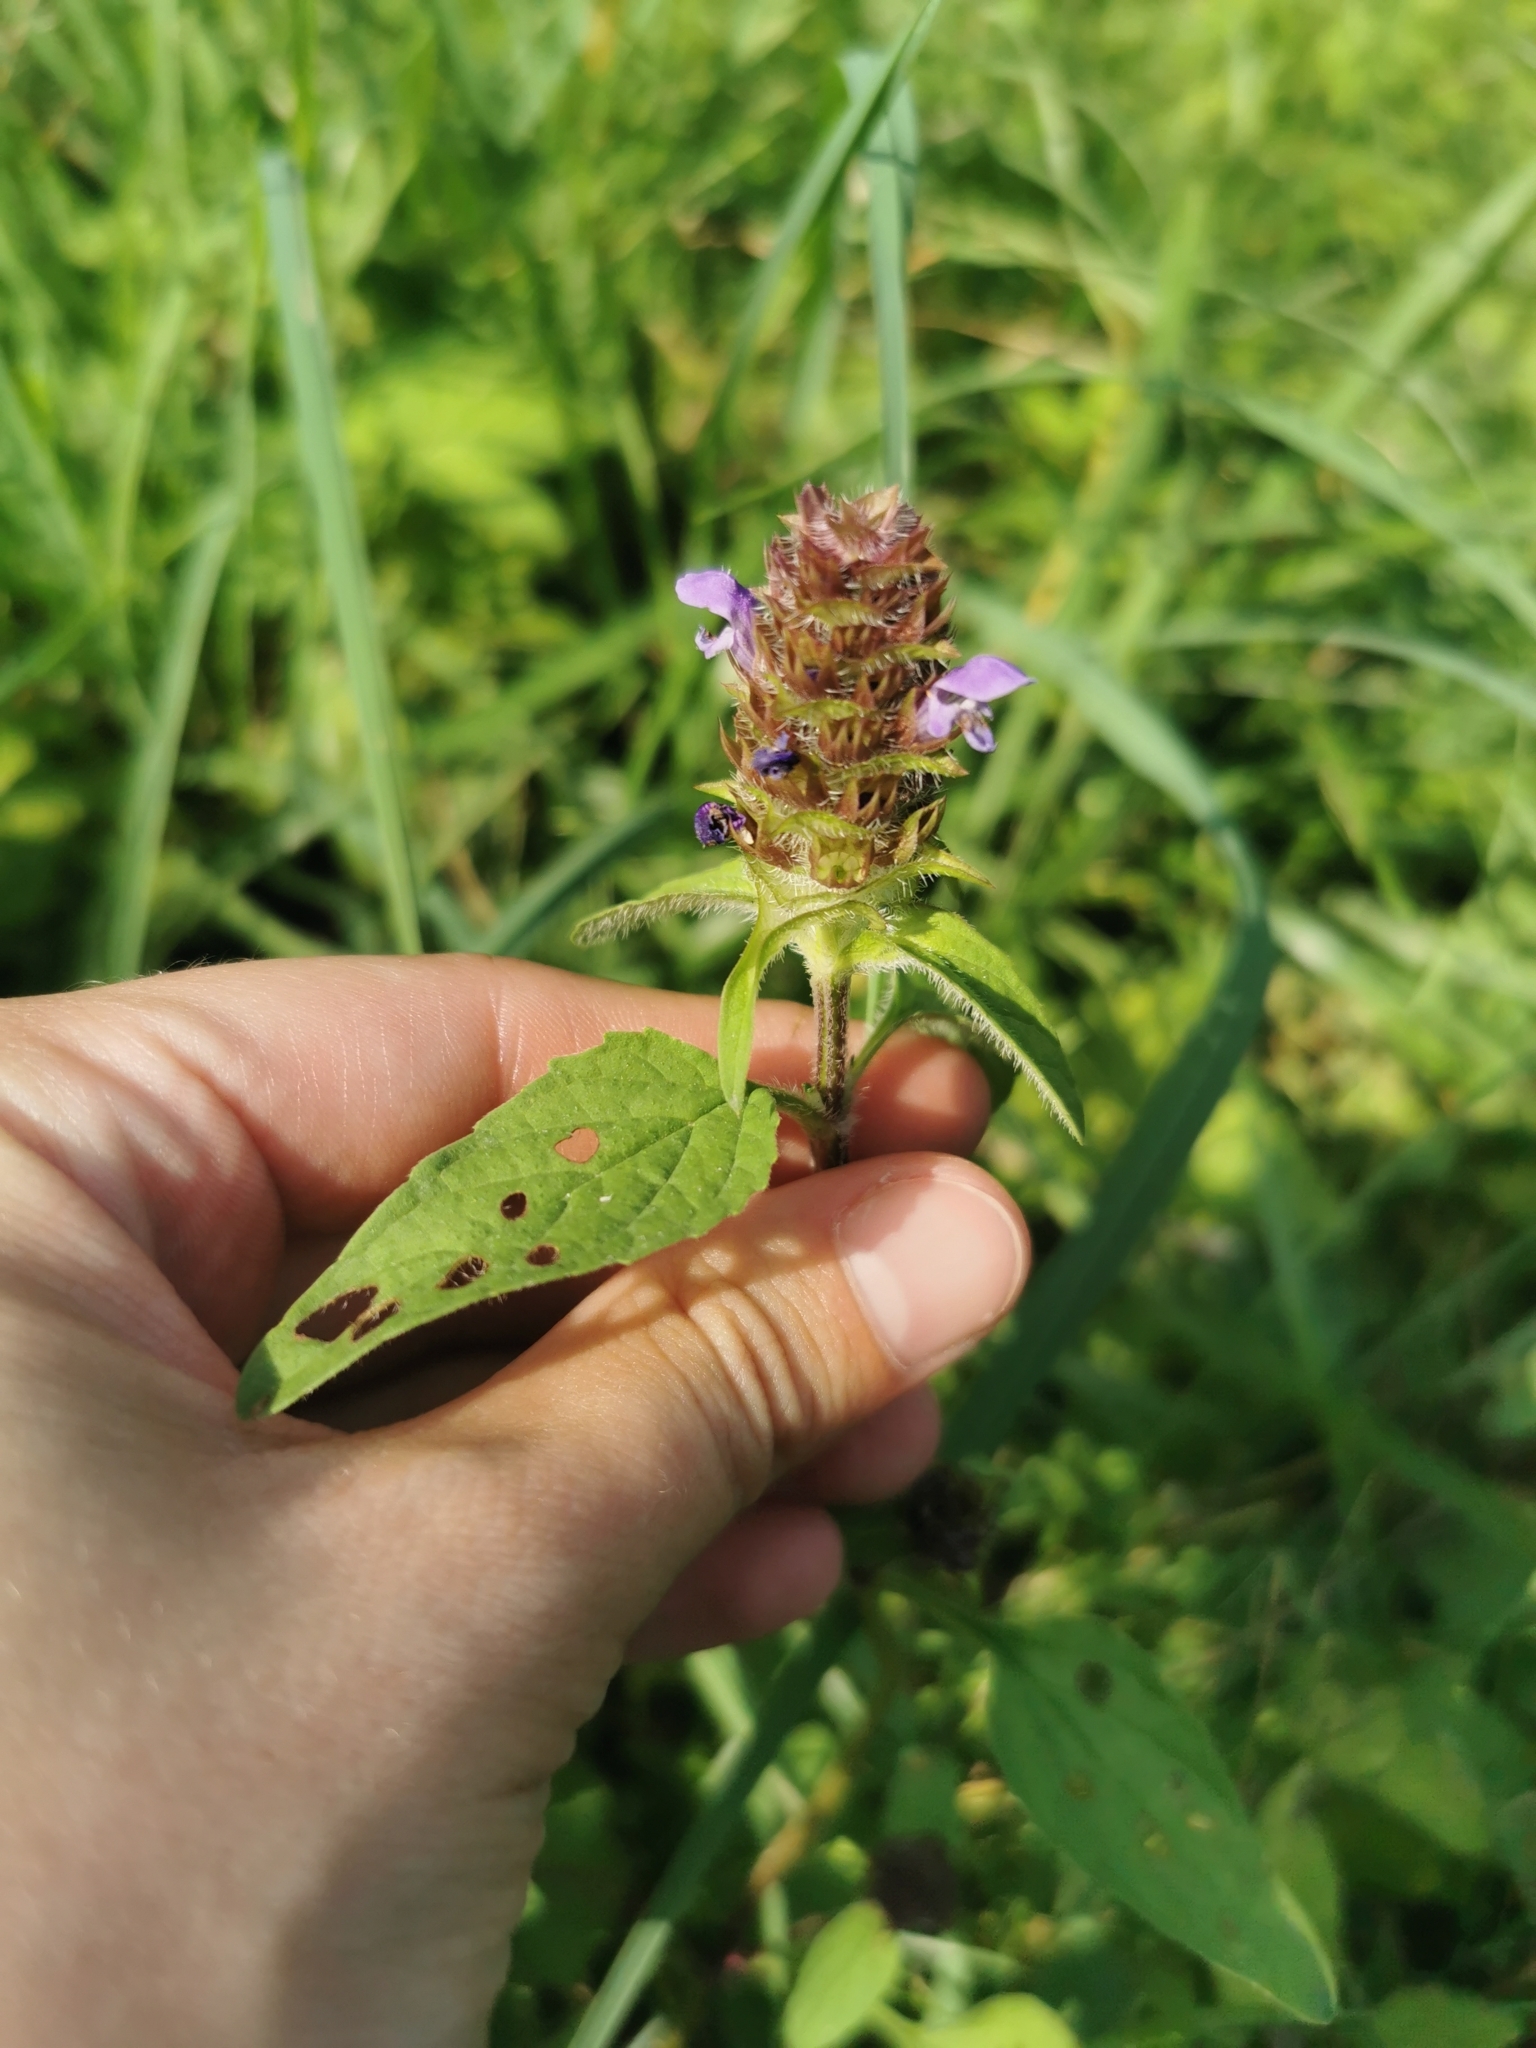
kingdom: Plantae
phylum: Tracheophyta
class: Magnoliopsida
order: Lamiales
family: Lamiaceae
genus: Prunella
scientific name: Prunella vulgaris
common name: Heal-all
